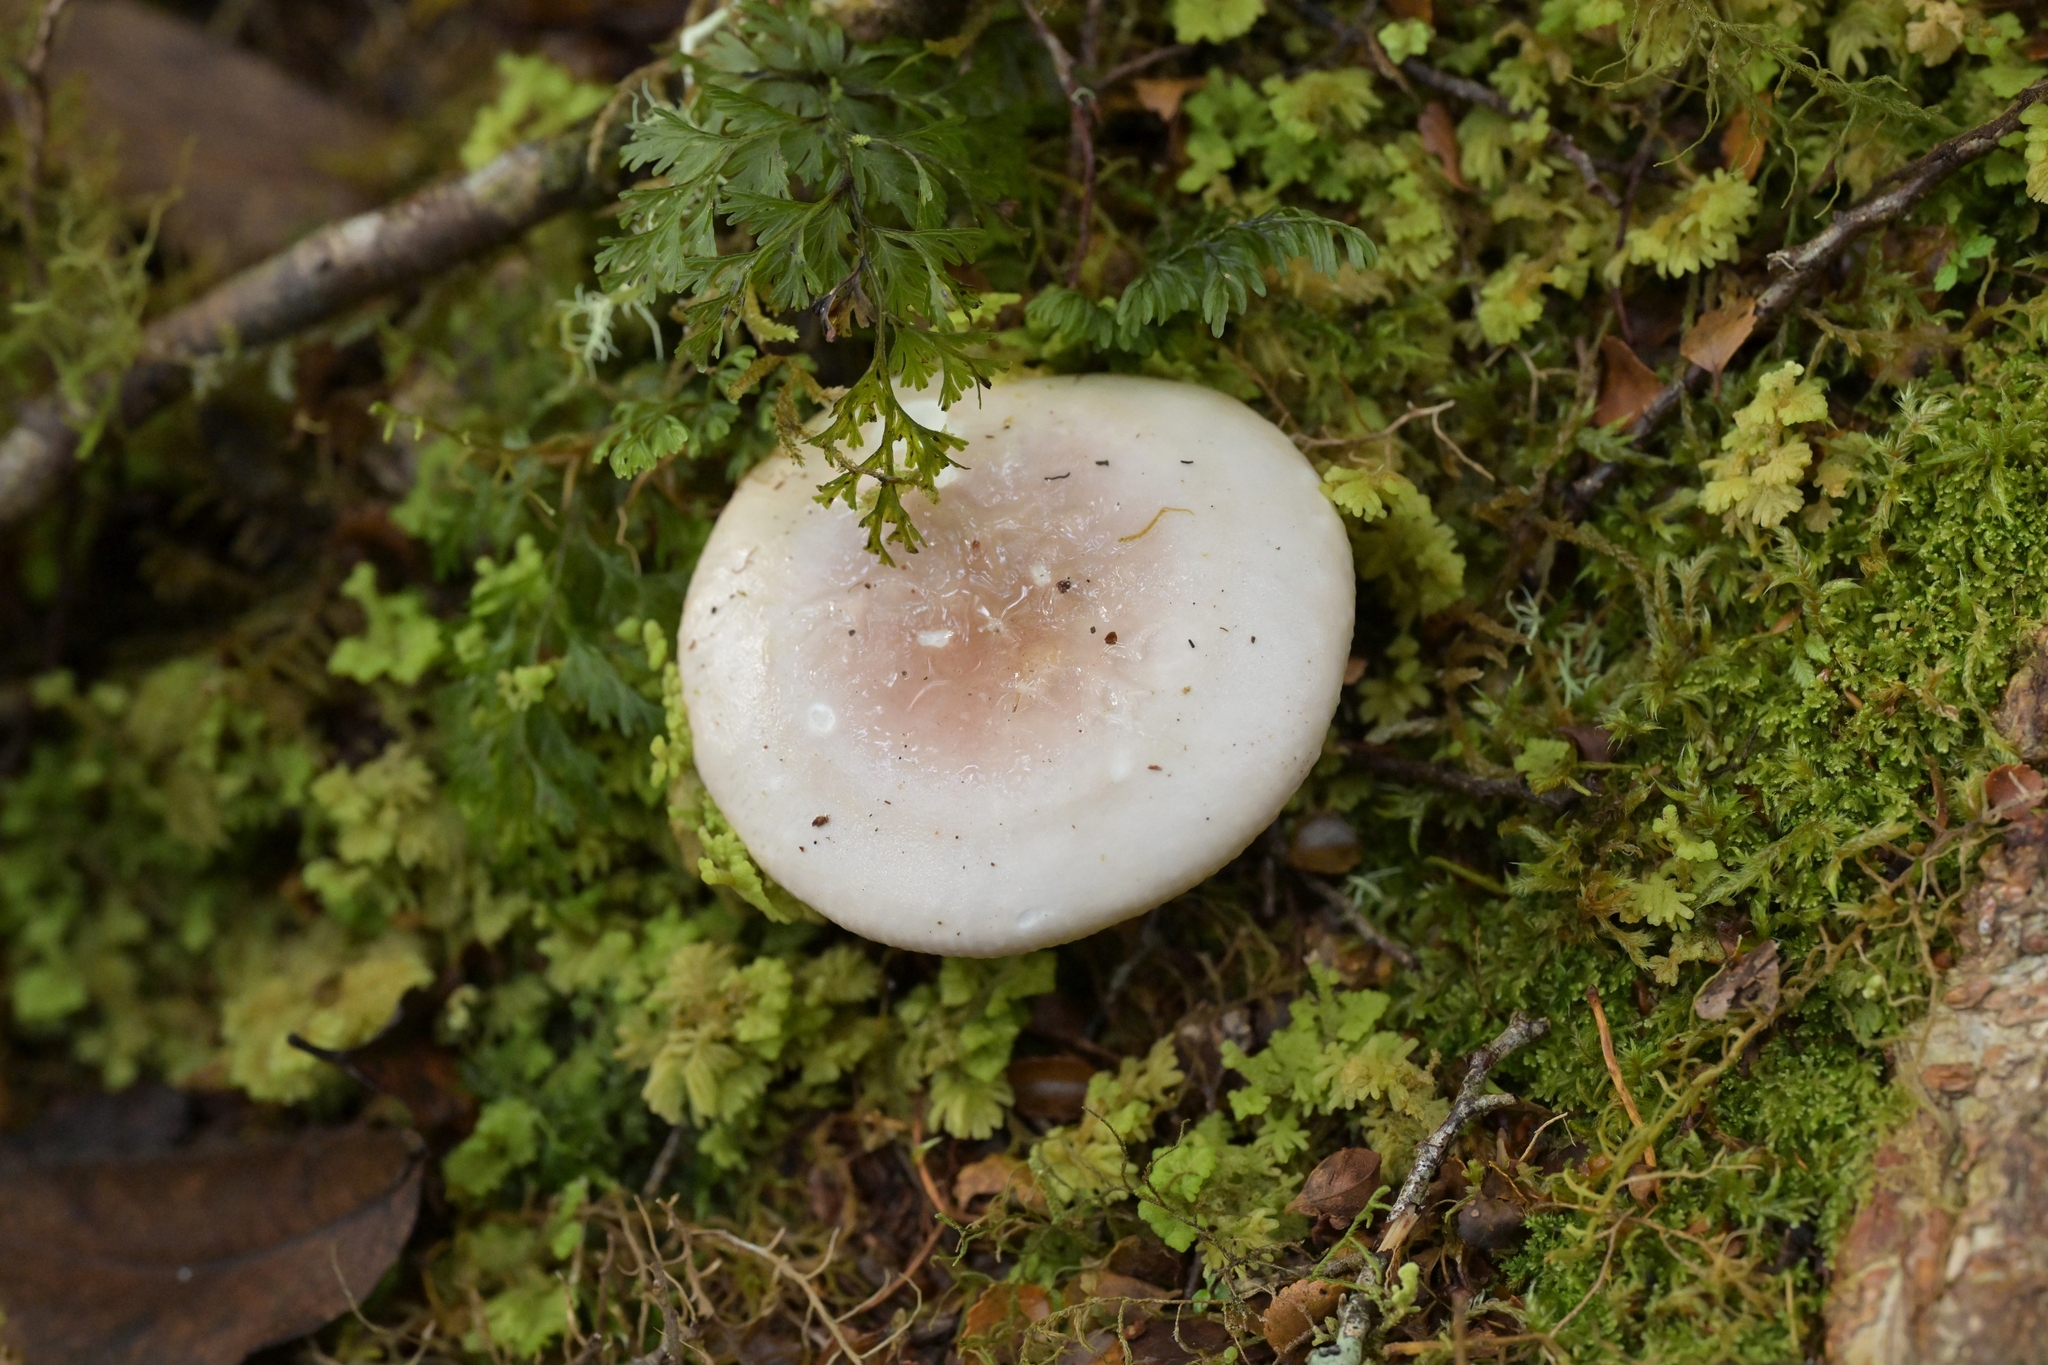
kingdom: Fungi
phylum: Basidiomycota
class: Agaricomycetes
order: Russulales
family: Russulaceae
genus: Russula
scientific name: Russula purpureotincta
